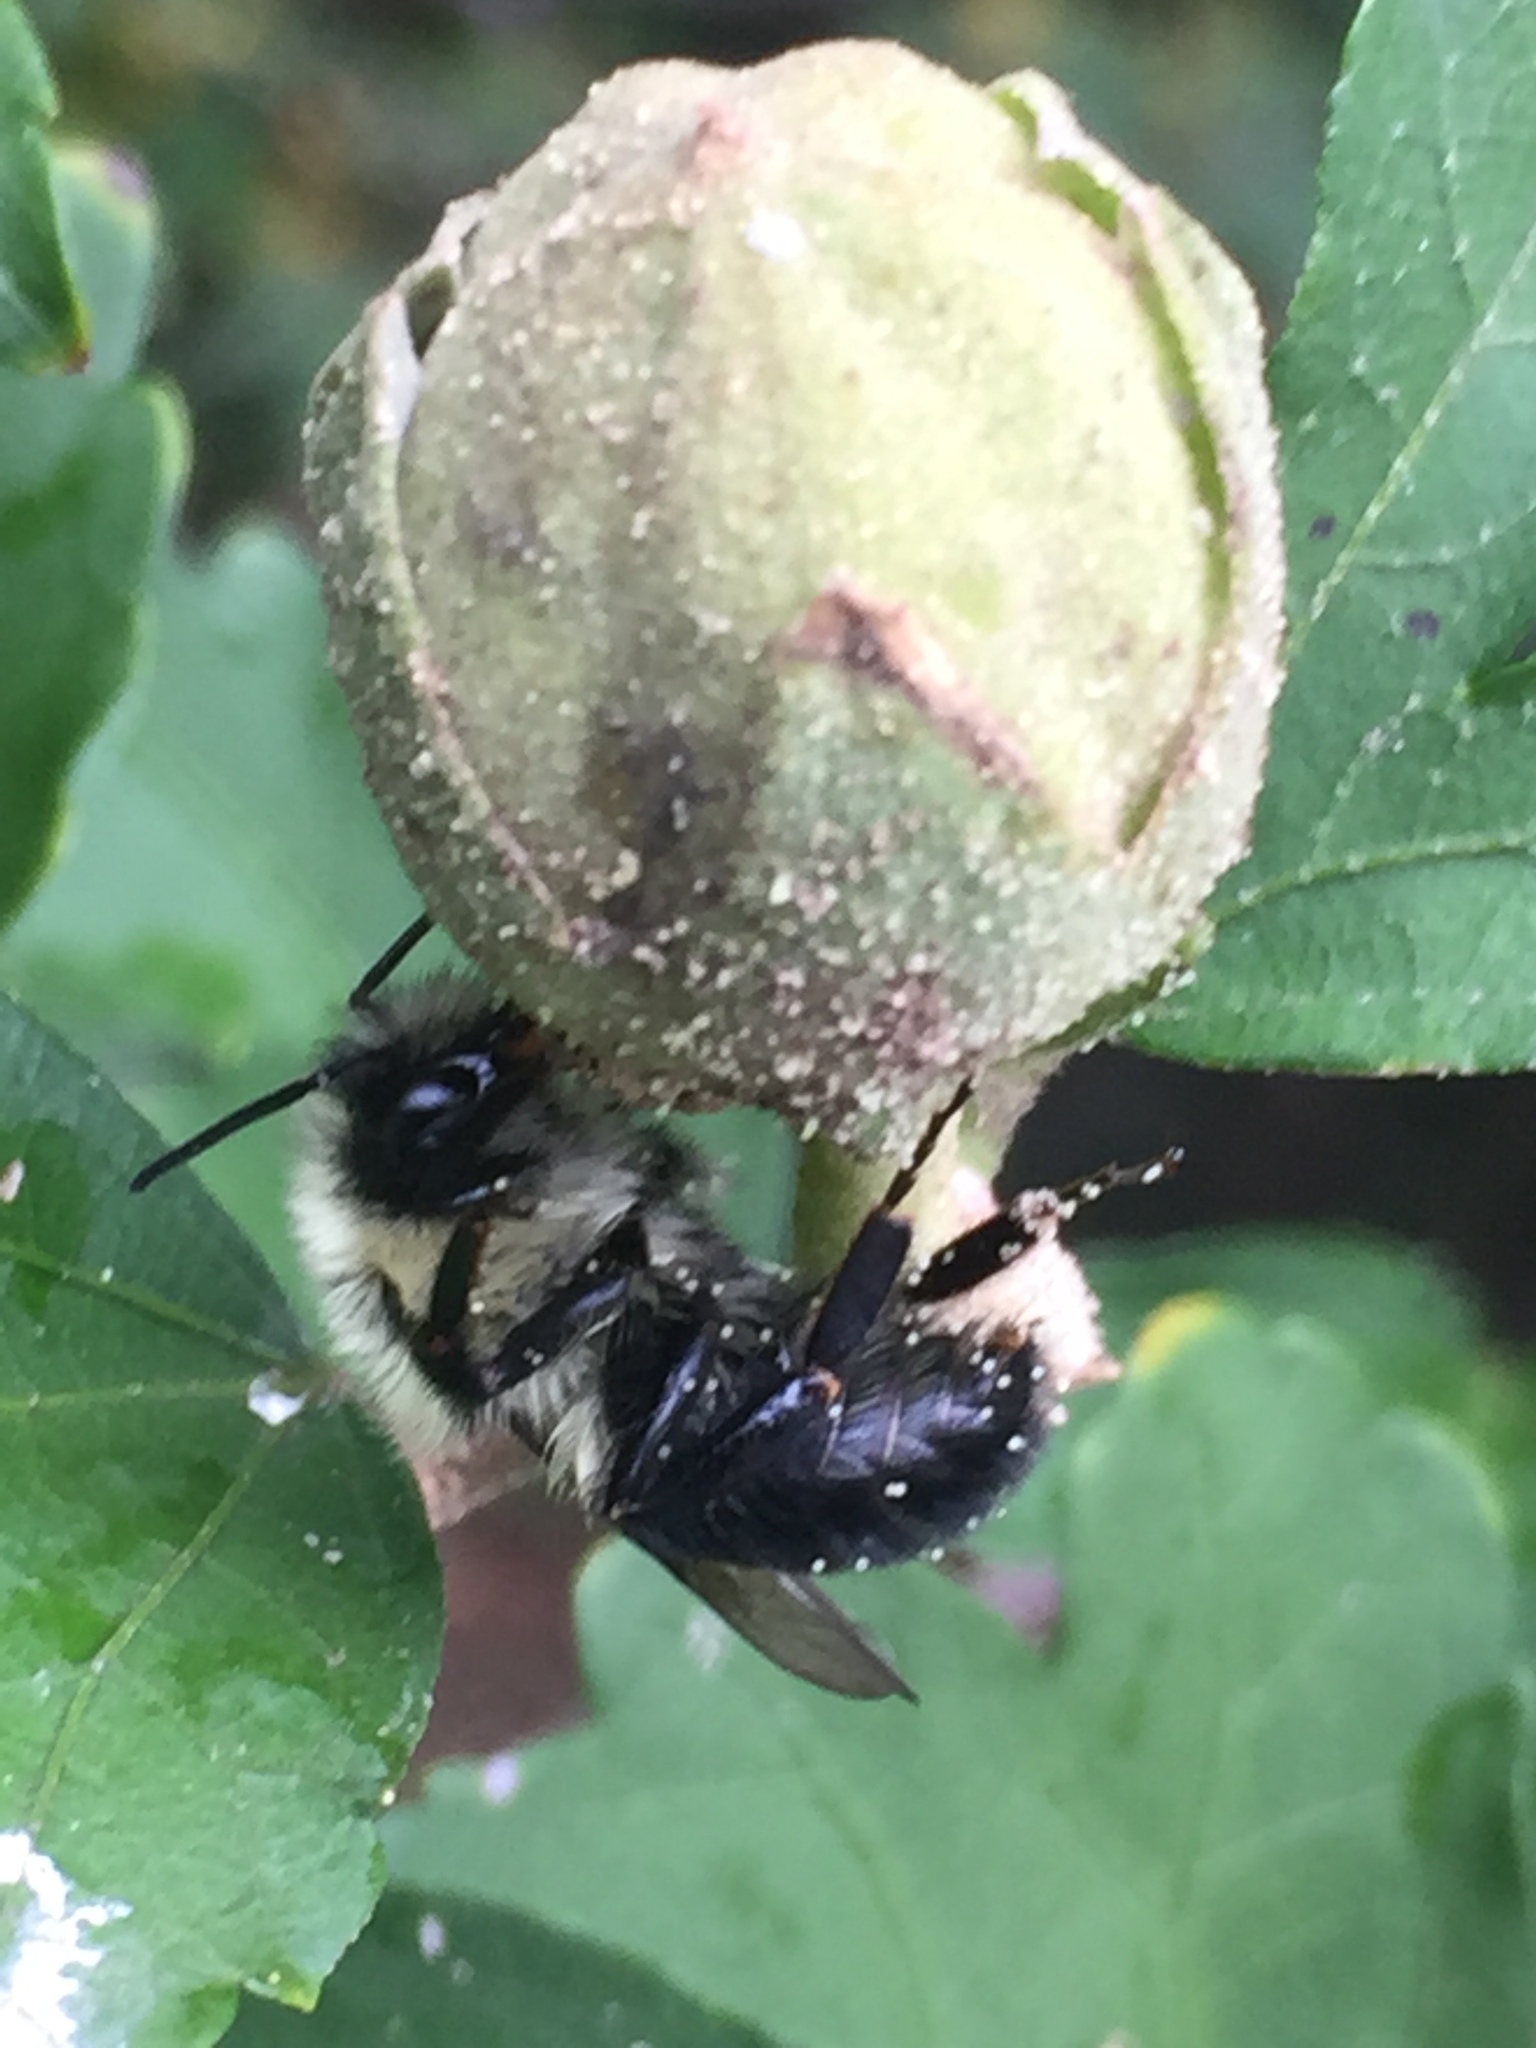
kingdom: Animalia
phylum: Arthropoda
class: Insecta
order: Hymenoptera
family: Apidae
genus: Bombus
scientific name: Bombus impatiens
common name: Common eastern bumble bee
